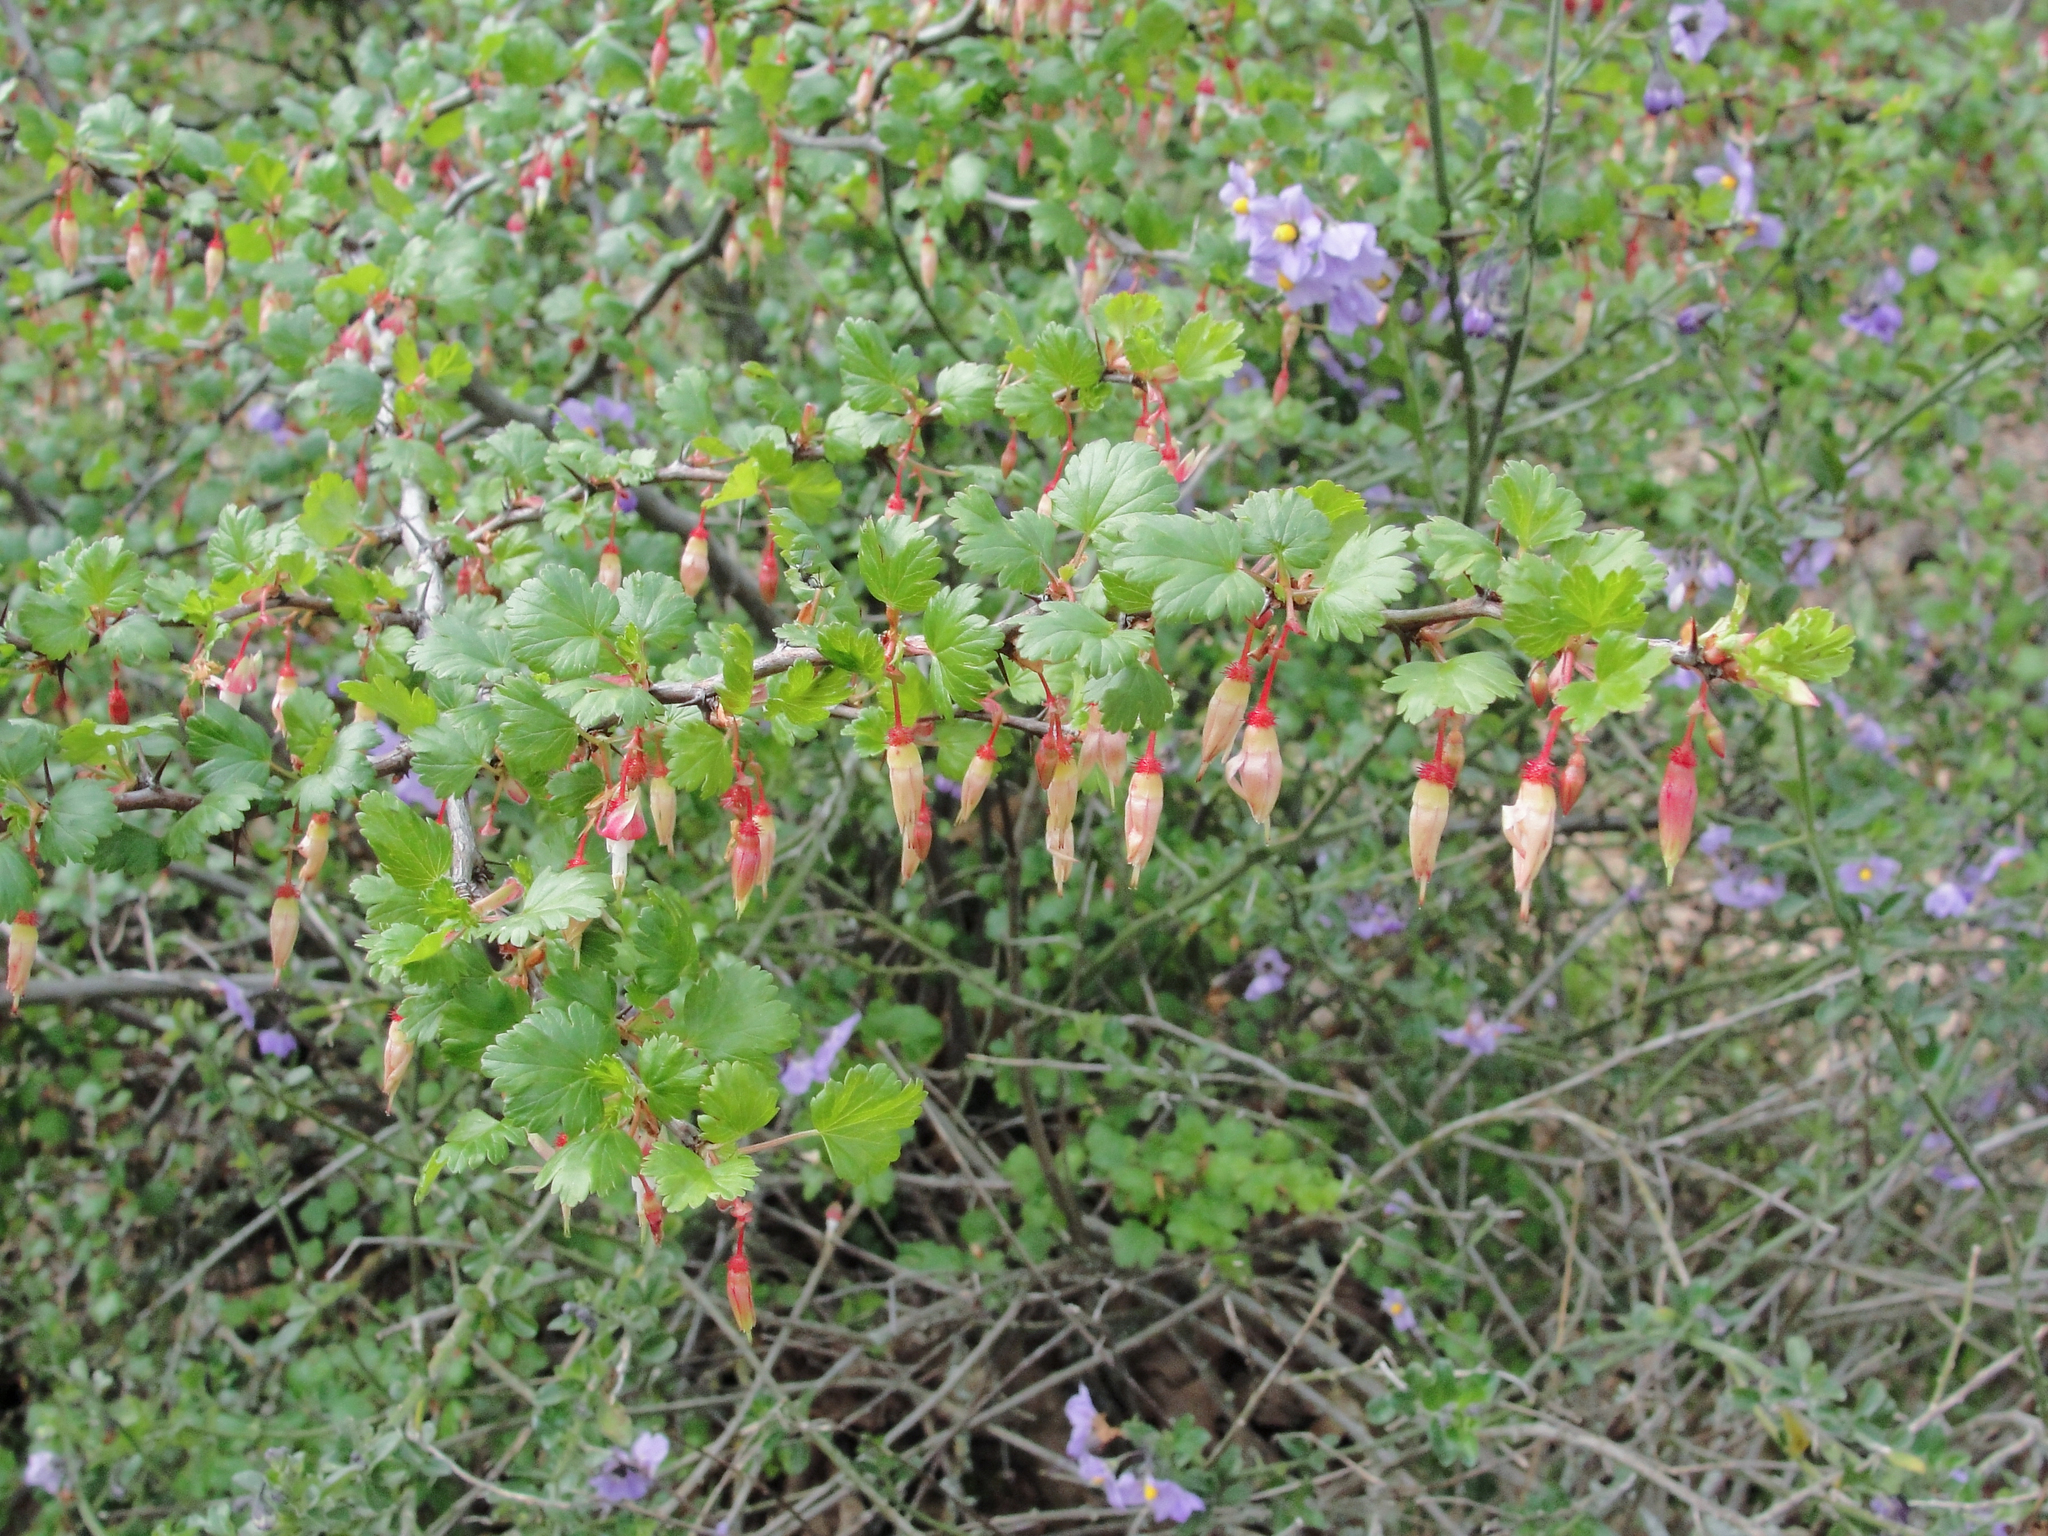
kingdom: Plantae
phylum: Tracheophyta
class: Magnoliopsida
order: Saxifragales
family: Grossulariaceae
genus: Ribes
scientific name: Ribes californicum
